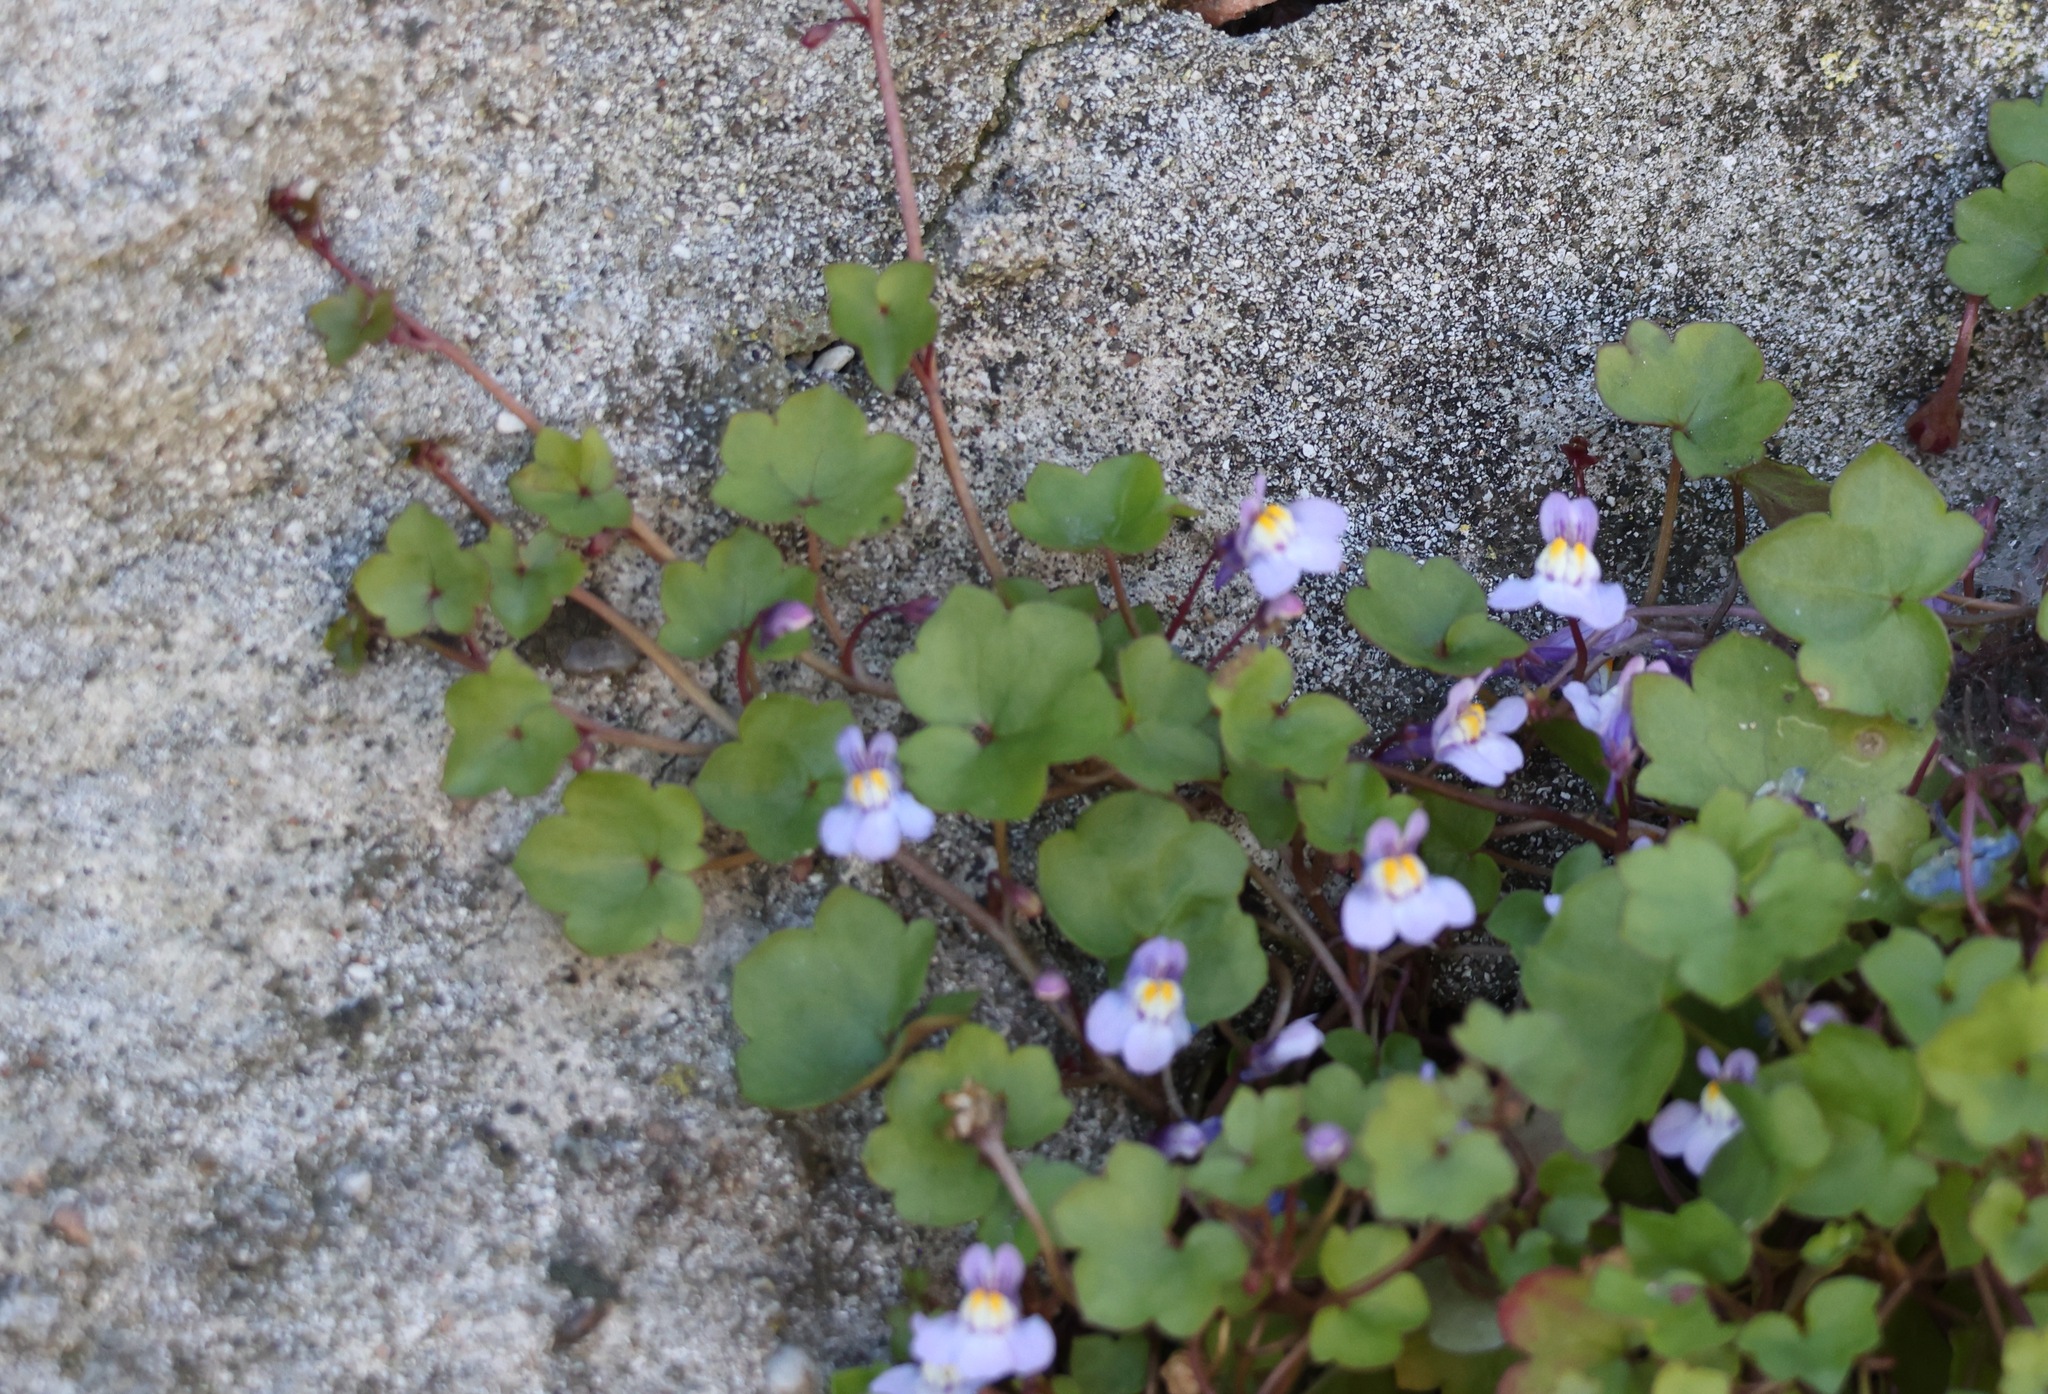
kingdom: Plantae
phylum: Tracheophyta
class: Magnoliopsida
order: Lamiales
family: Plantaginaceae
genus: Cymbalaria
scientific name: Cymbalaria muralis
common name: Ivy-leaved toadflax
